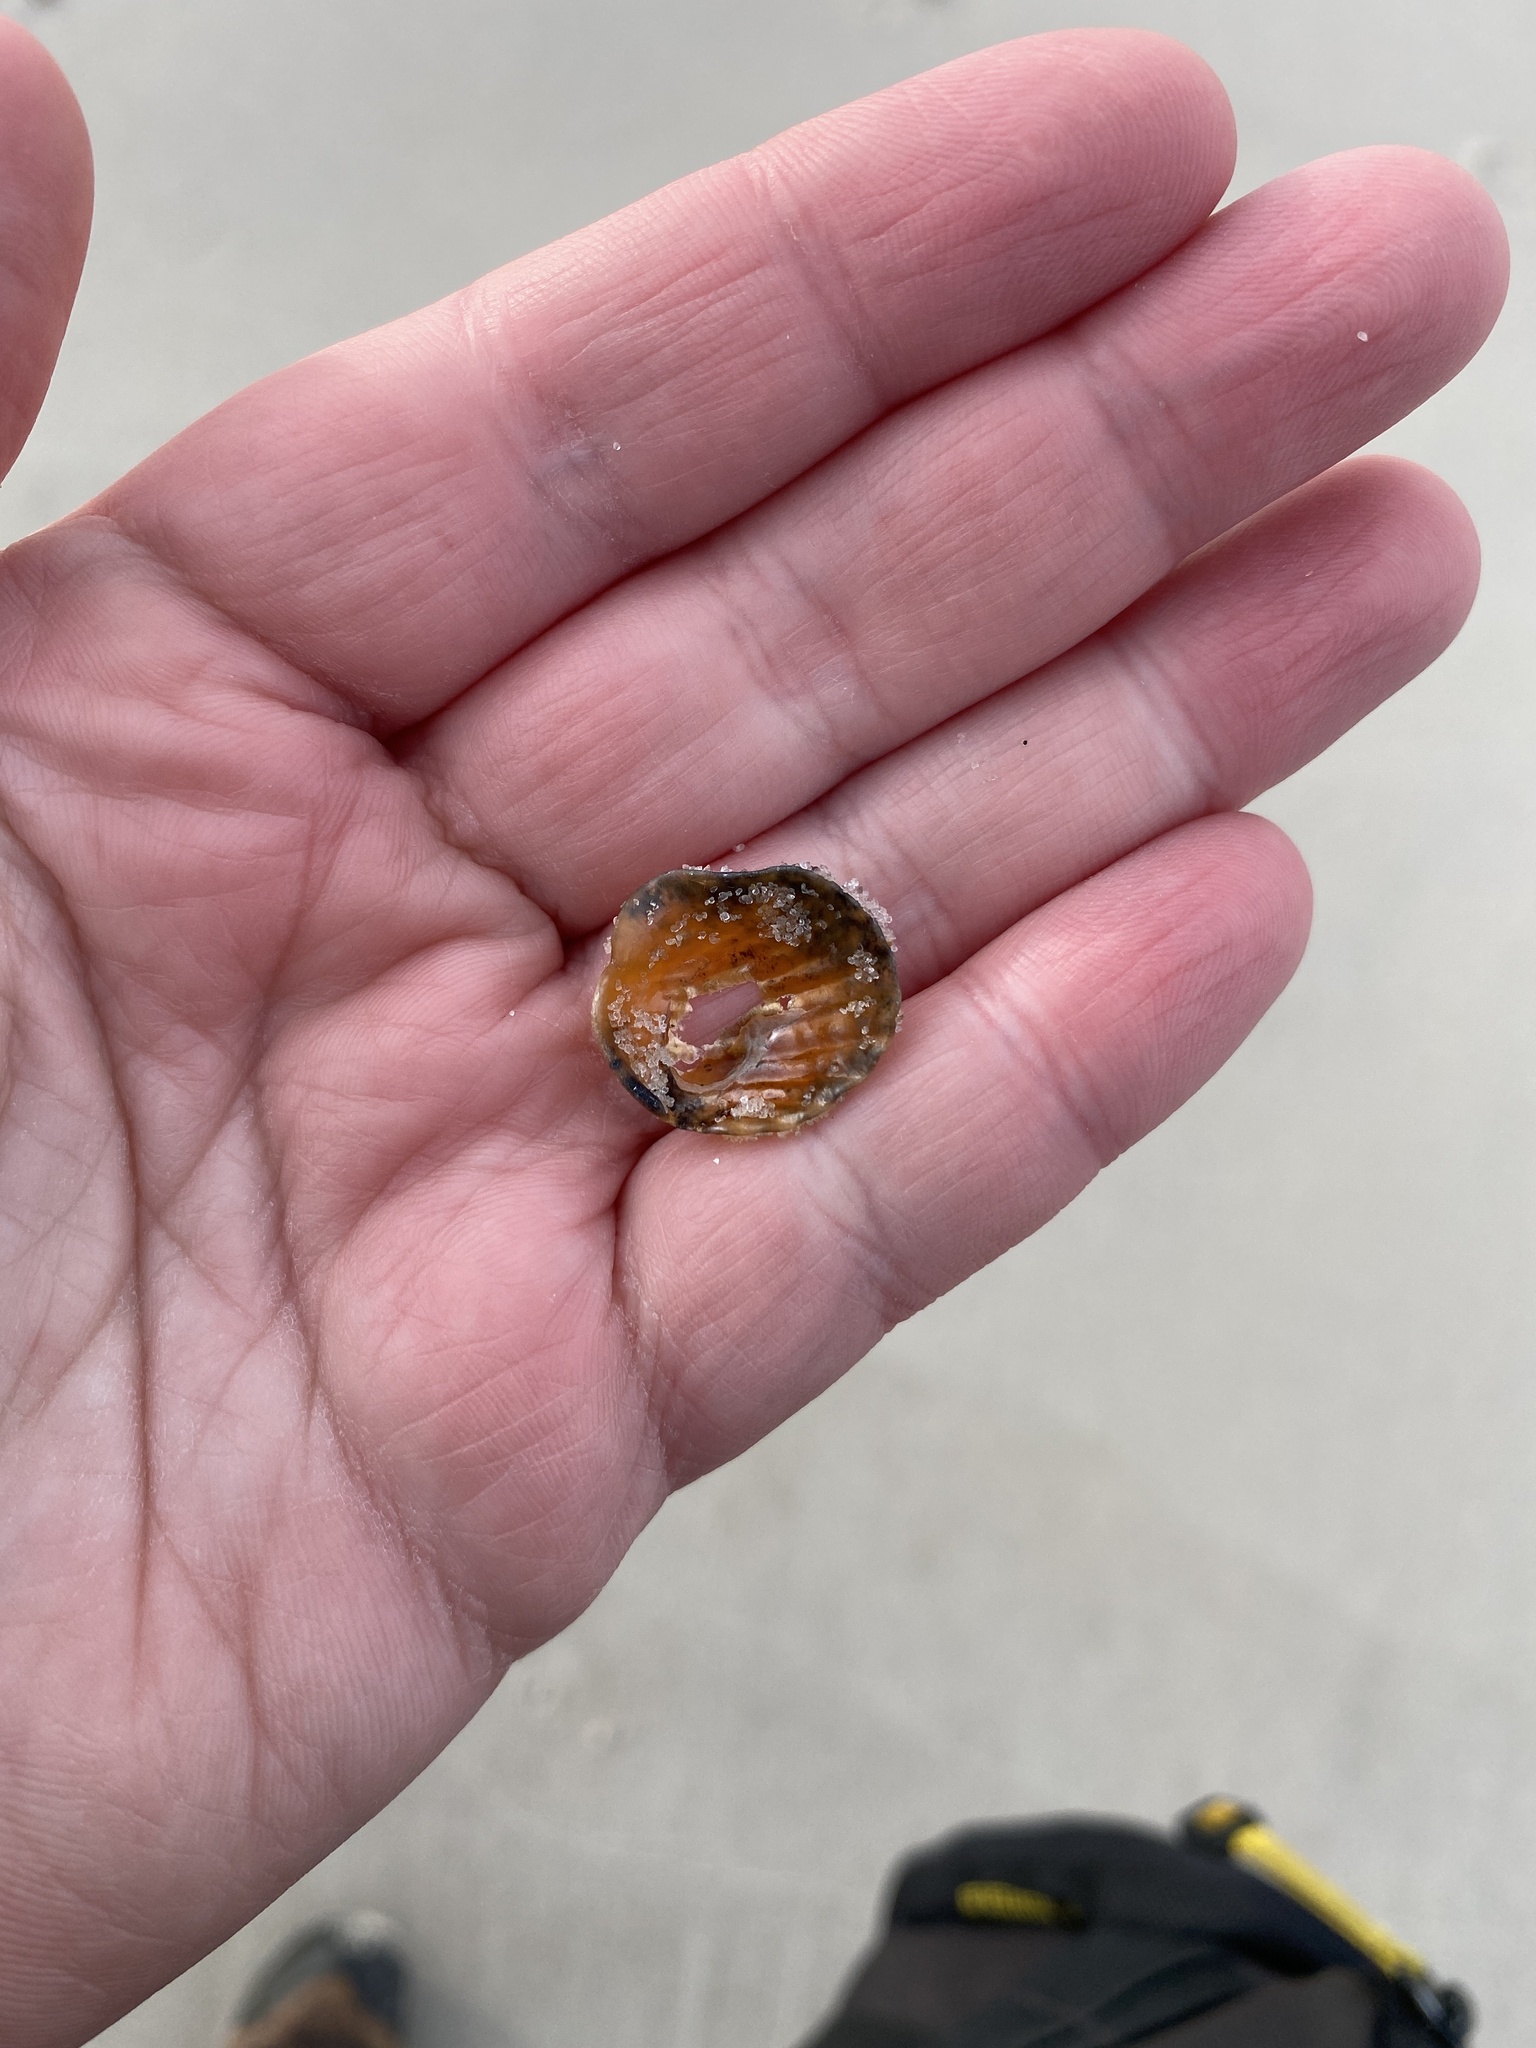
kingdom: Animalia
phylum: Mollusca
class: Bivalvia
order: Pectinida
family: Anomiidae
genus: Anomia
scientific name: Anomia simplex
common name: Common jingle shell
